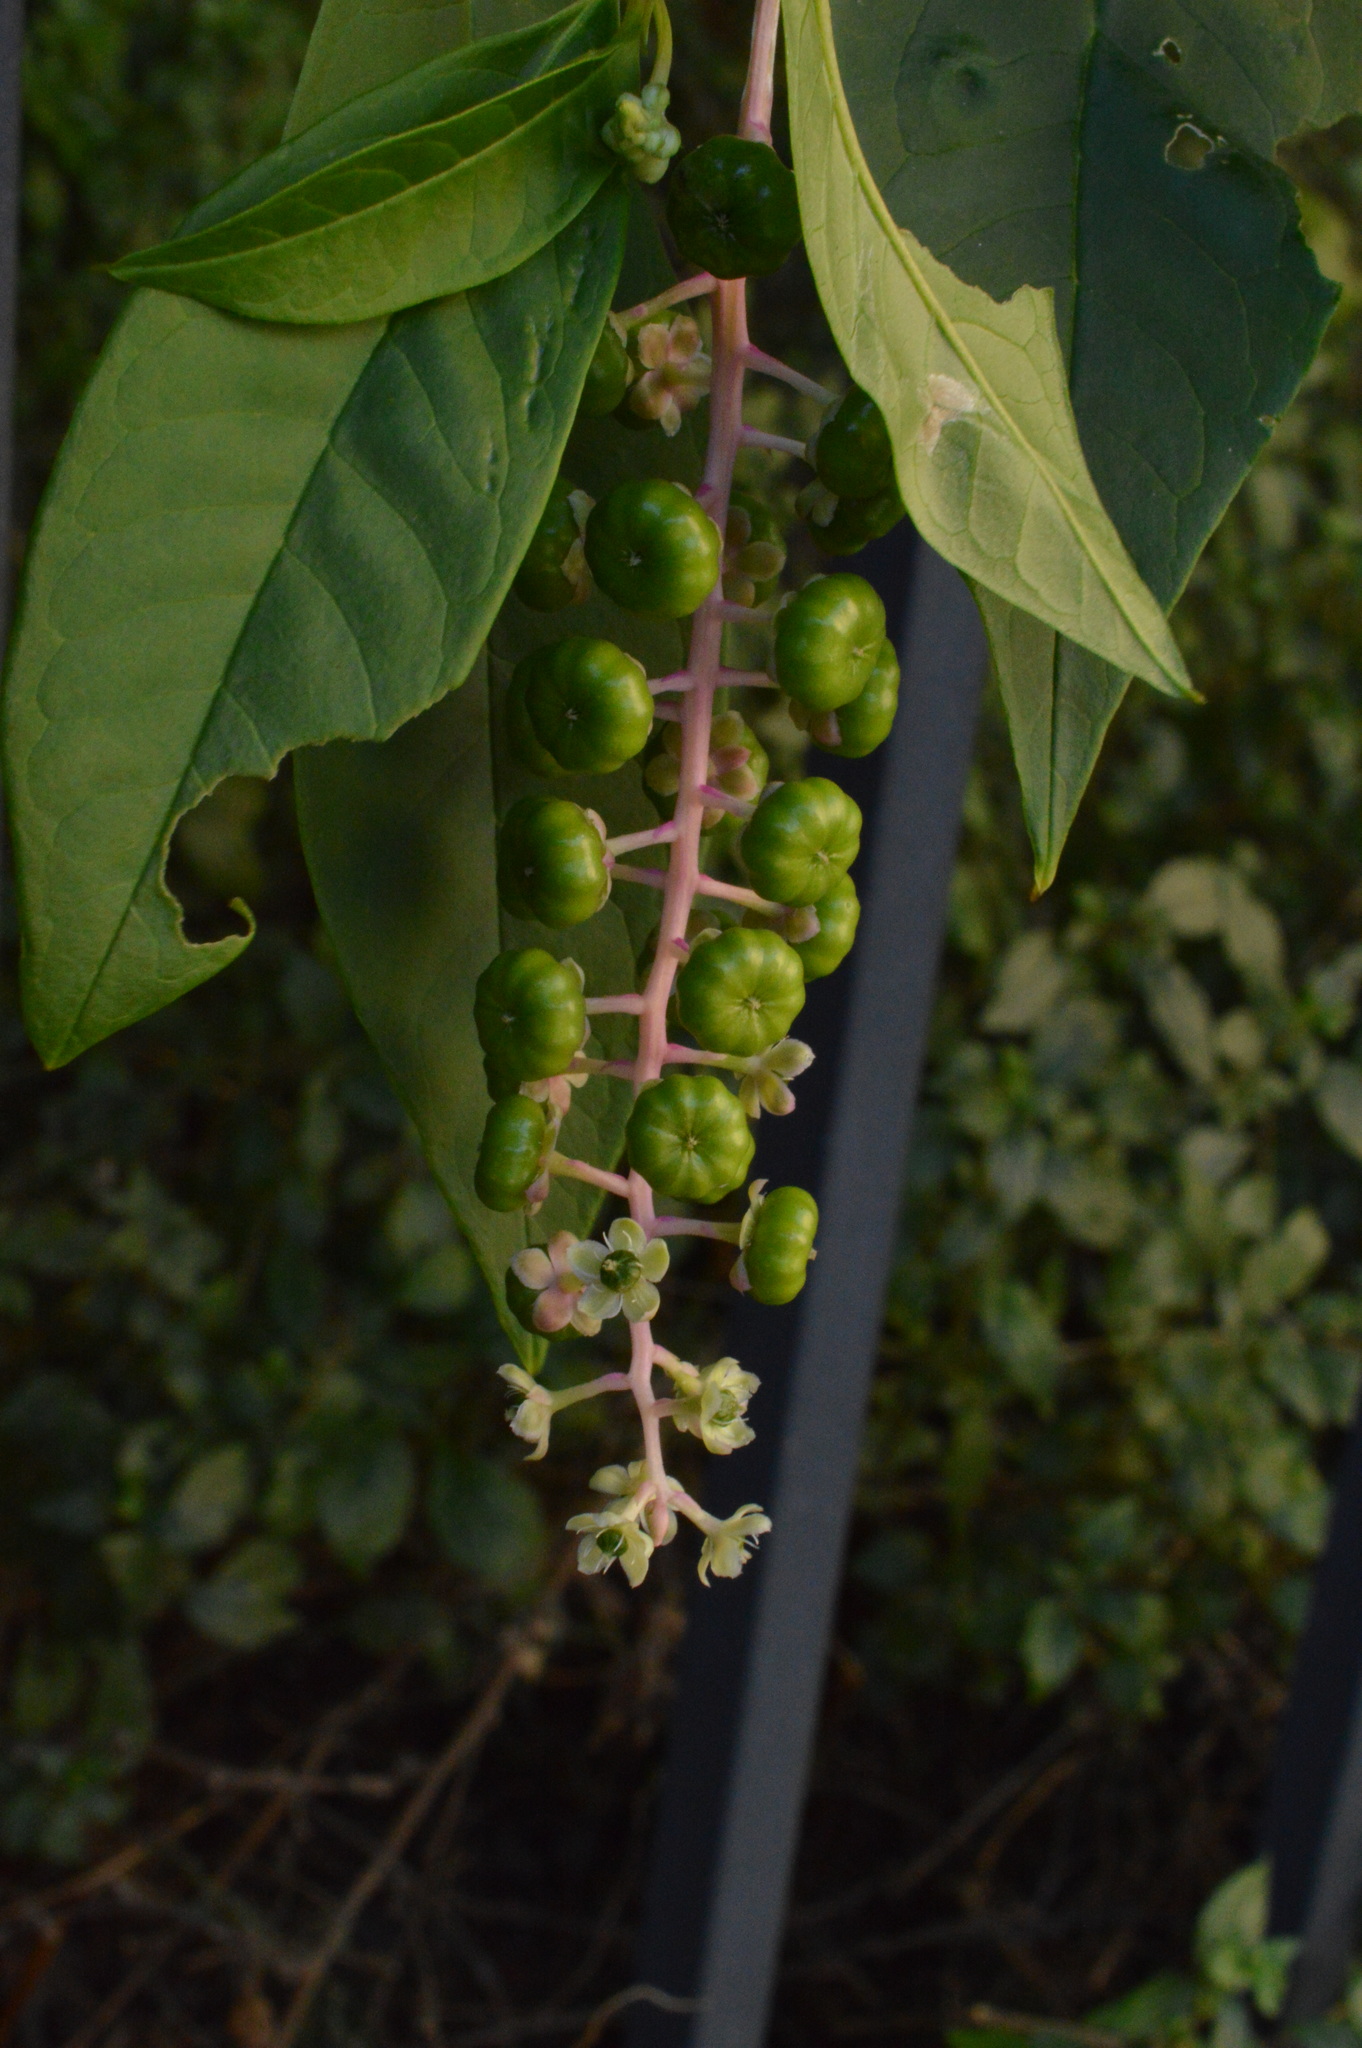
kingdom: Plantae
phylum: Tracheophyta
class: Magnoliopsida
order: Caryophyllales
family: Phytolaccaceae
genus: Phytolacca
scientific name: Phytolacca americana
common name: American pokeweed
